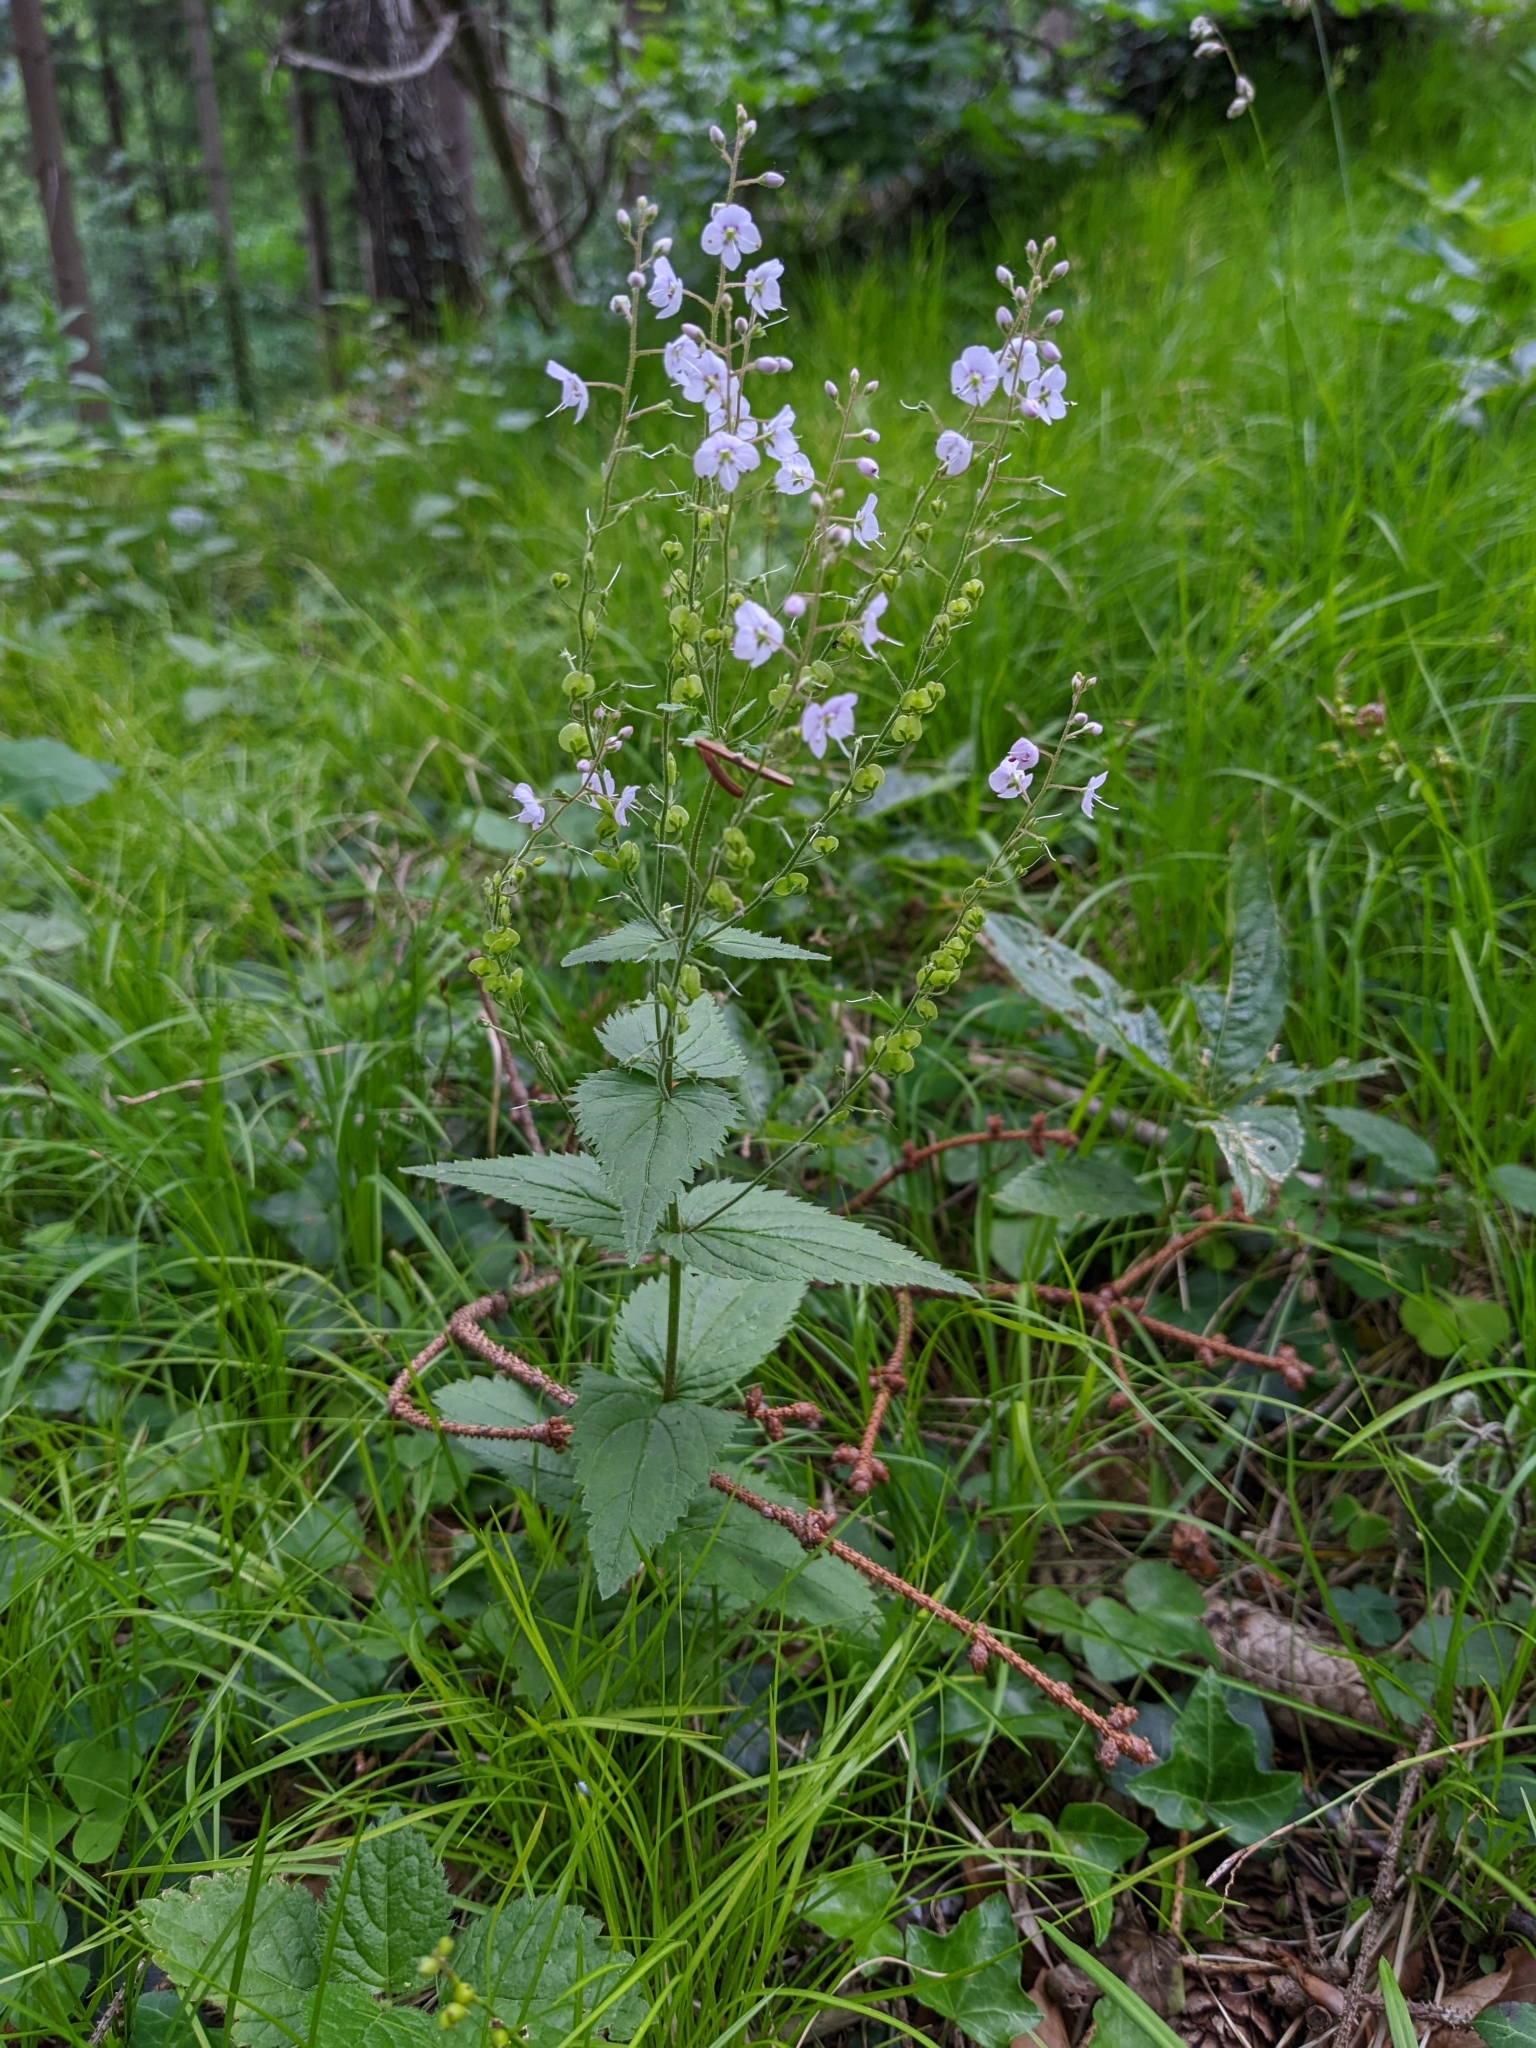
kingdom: Plantae
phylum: Tracheophyta
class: Magnoliopsida
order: Lamiales
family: Plantaginaceae
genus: Veronica
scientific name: Veronica urticifolia
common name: Nettle-leaf speedwell
